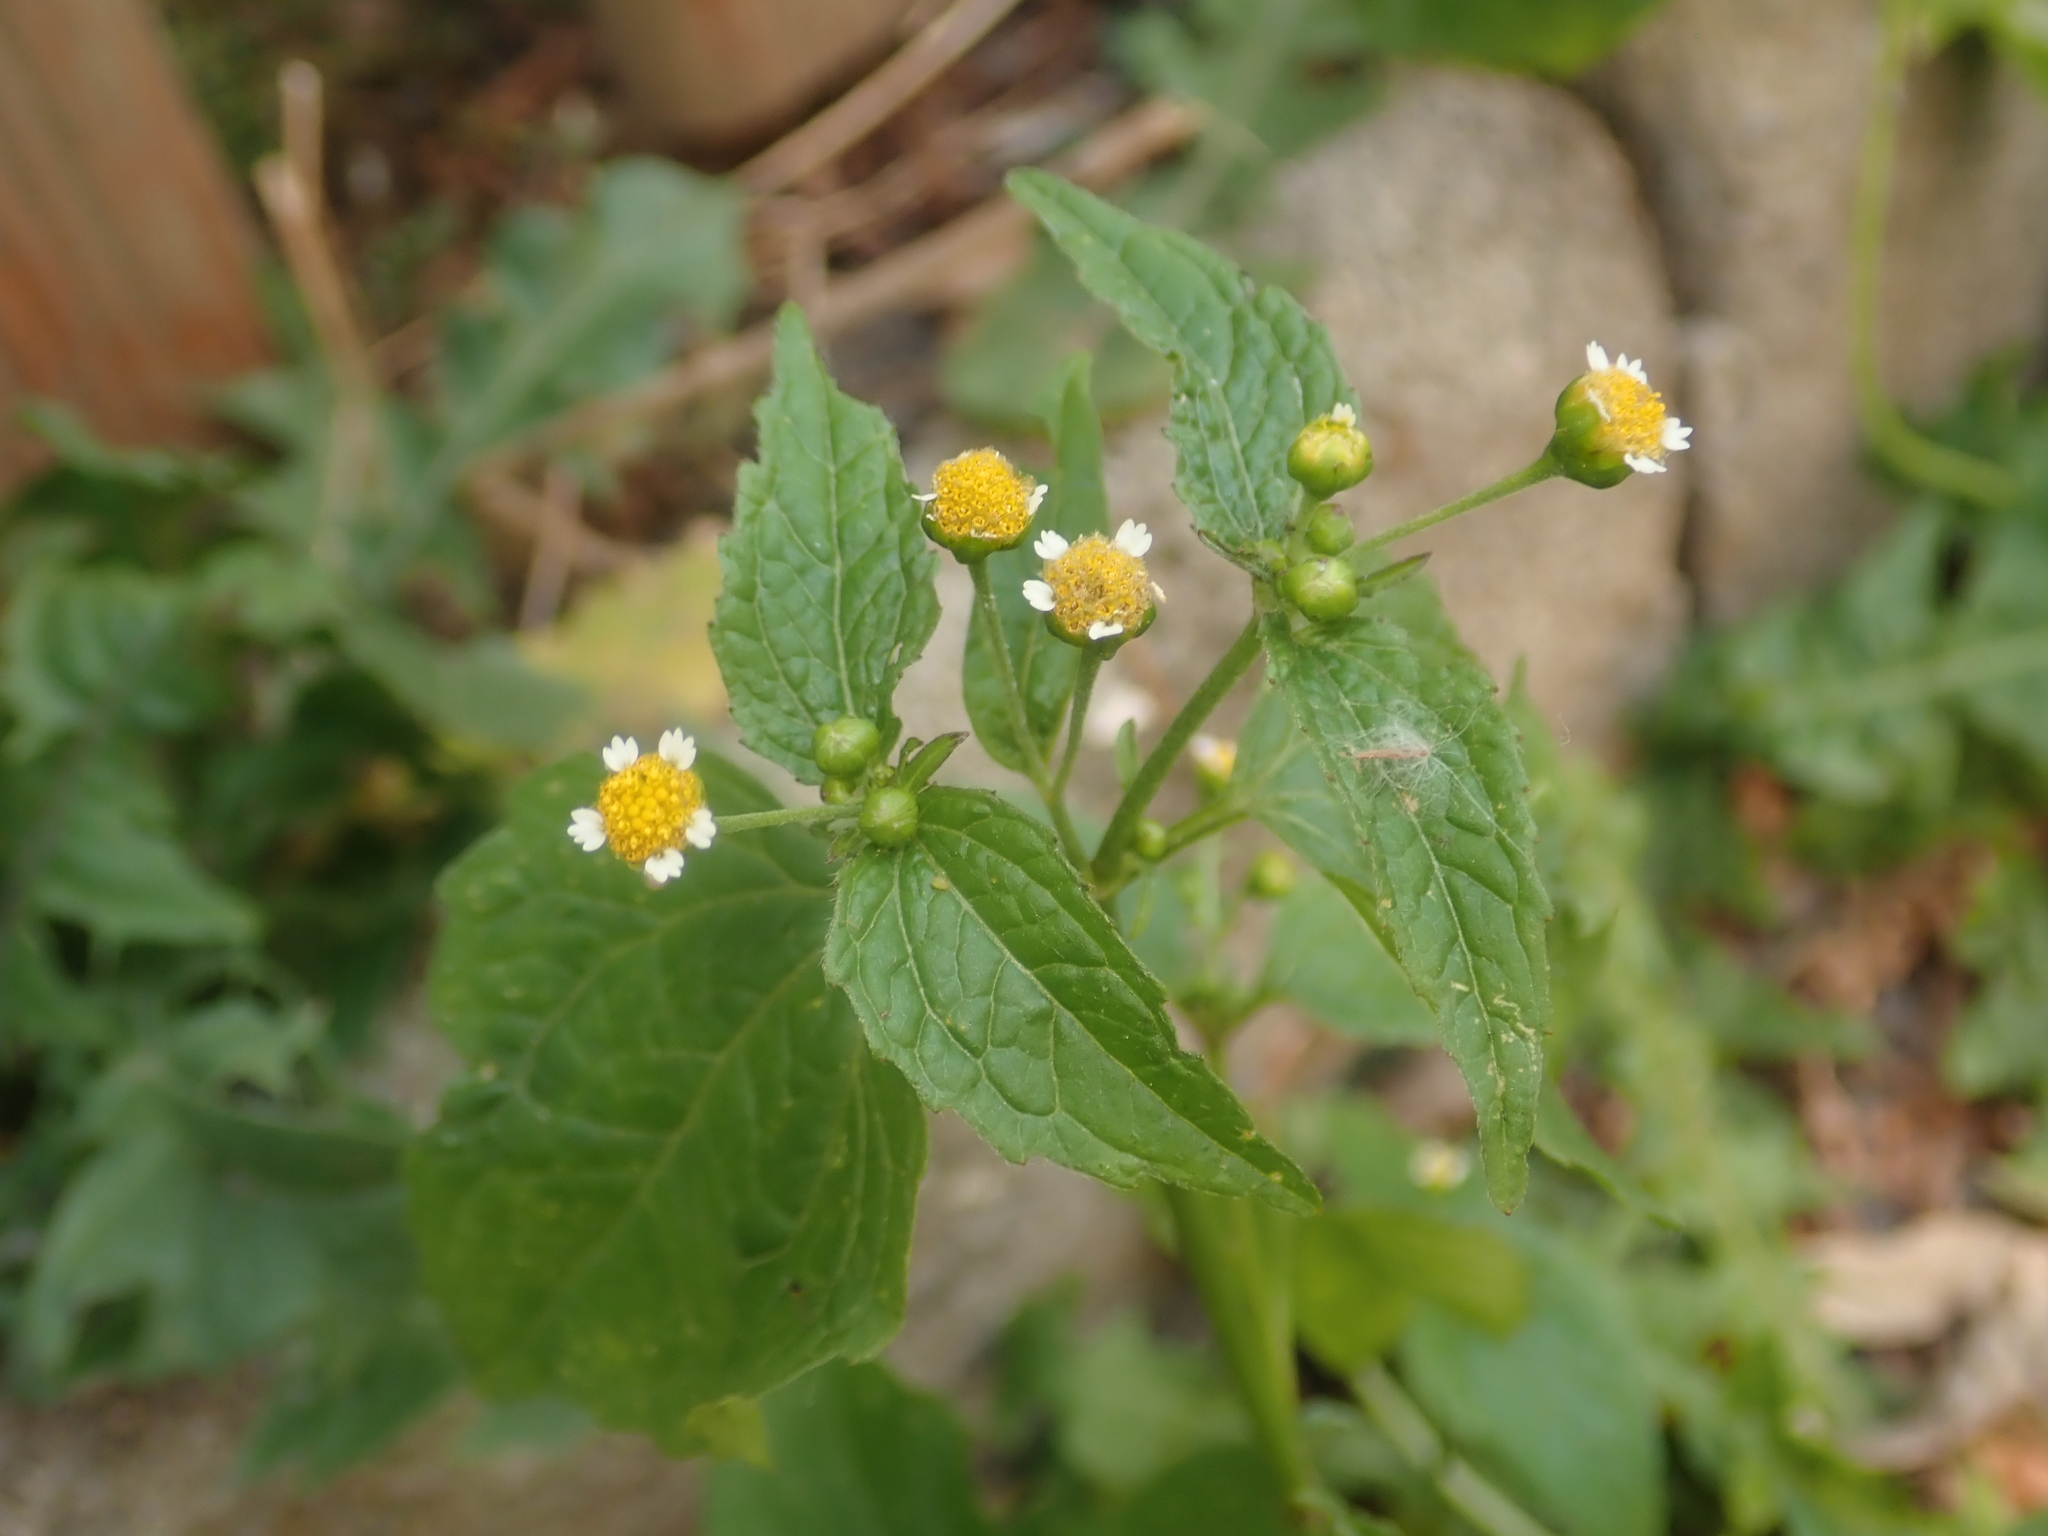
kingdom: Plantae
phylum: Tracheophyta
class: Magnoliopsida
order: Asterales
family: Asteraceae
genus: Galinsoga
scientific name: Galinsoga parviflora
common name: Gallant soldier
